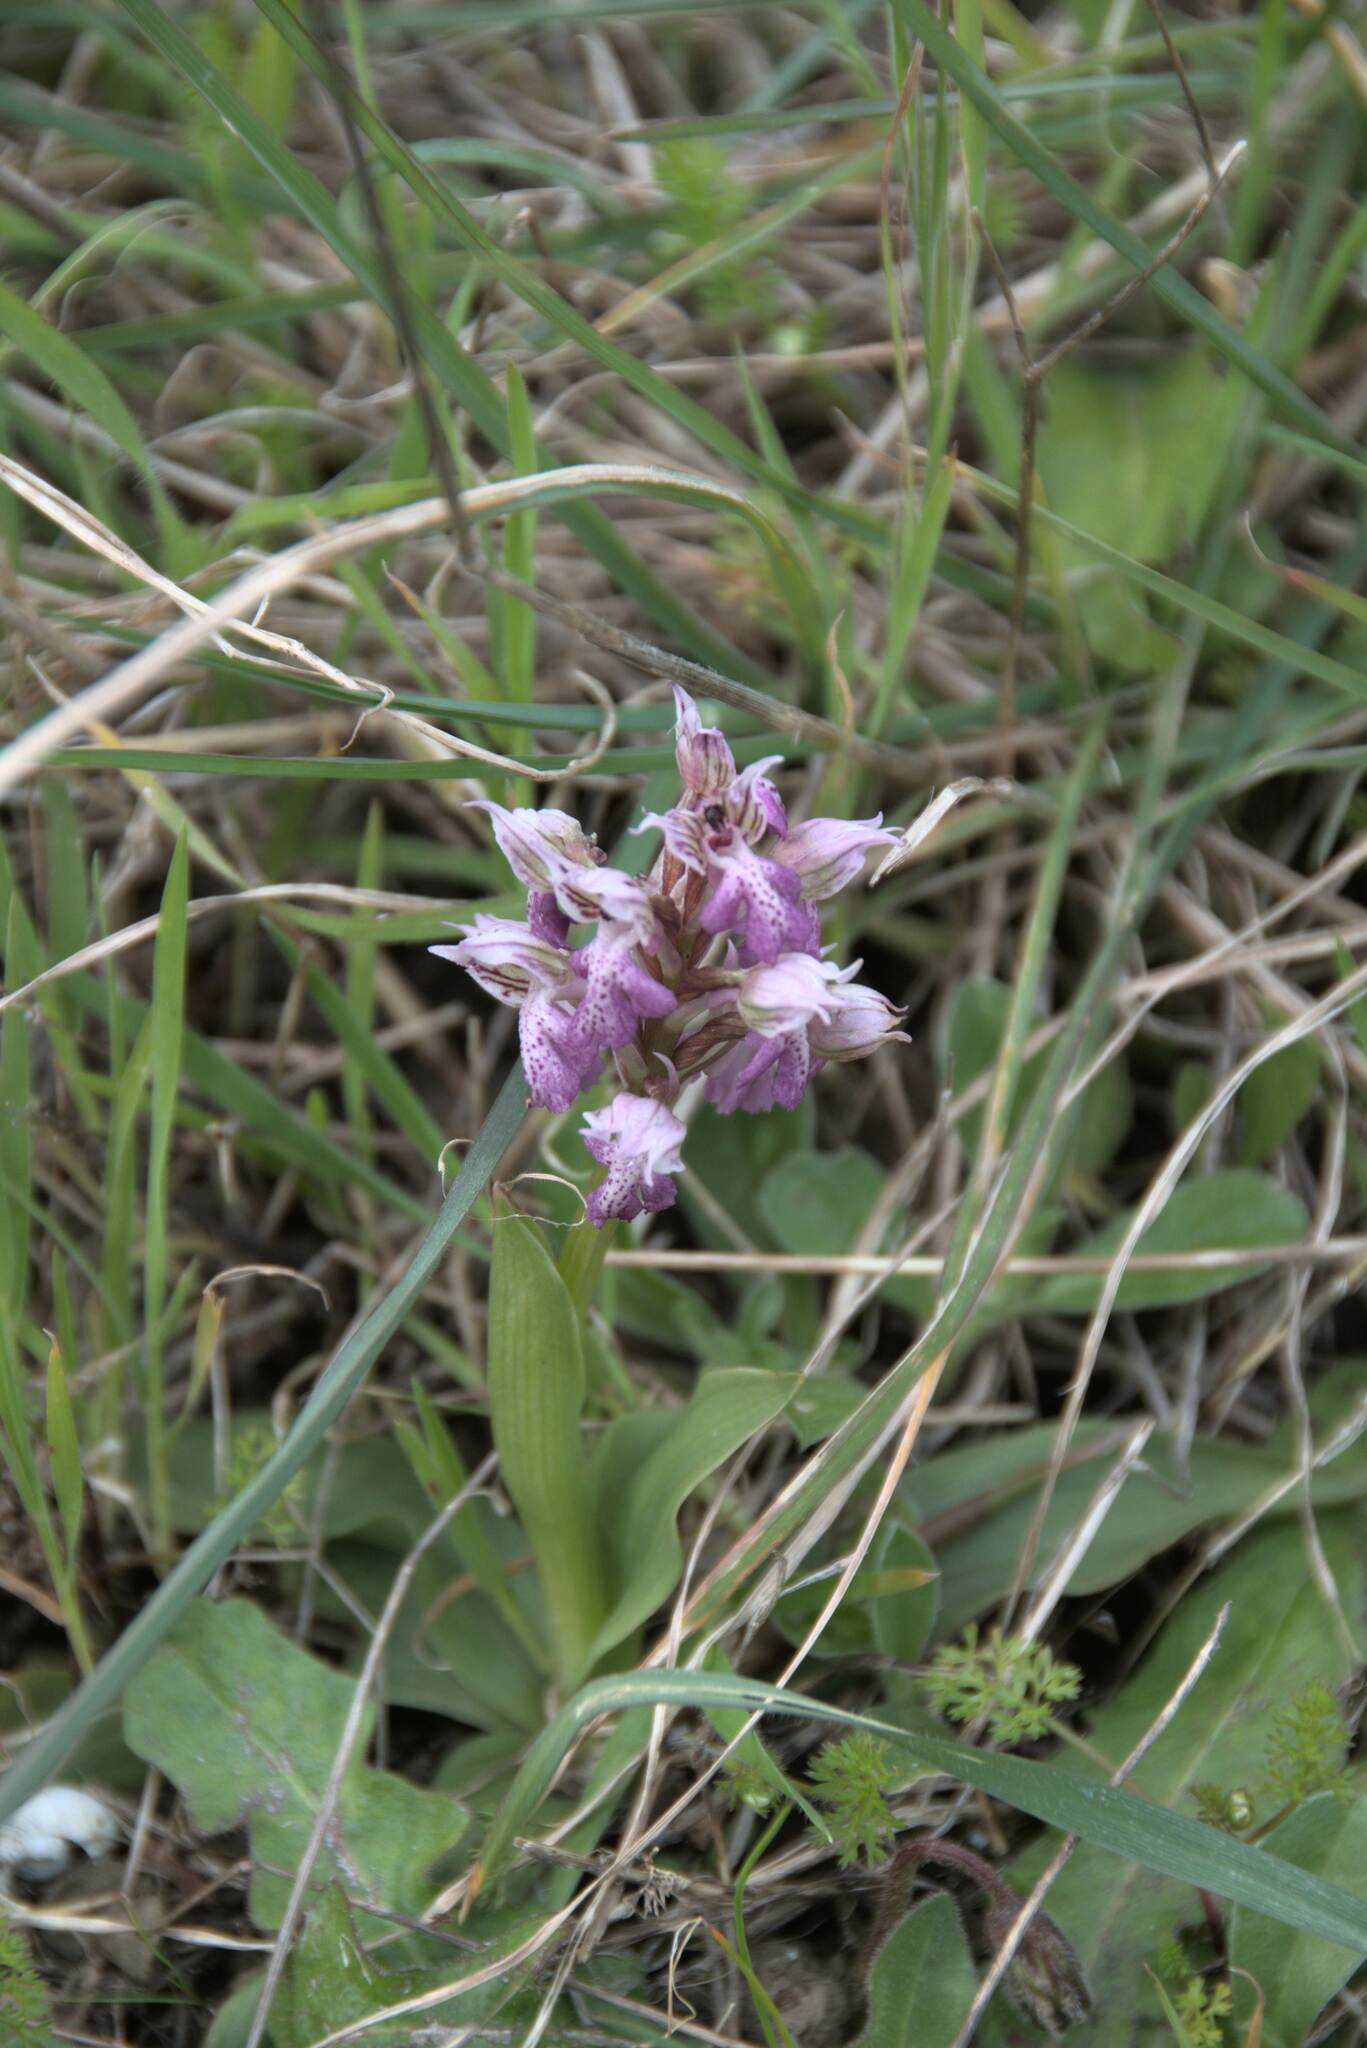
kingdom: Plantae
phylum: Tracheophyta
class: Liliopsida
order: Asparagales
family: Orchidaceae
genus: Neotinea
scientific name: Neotinea lactea
